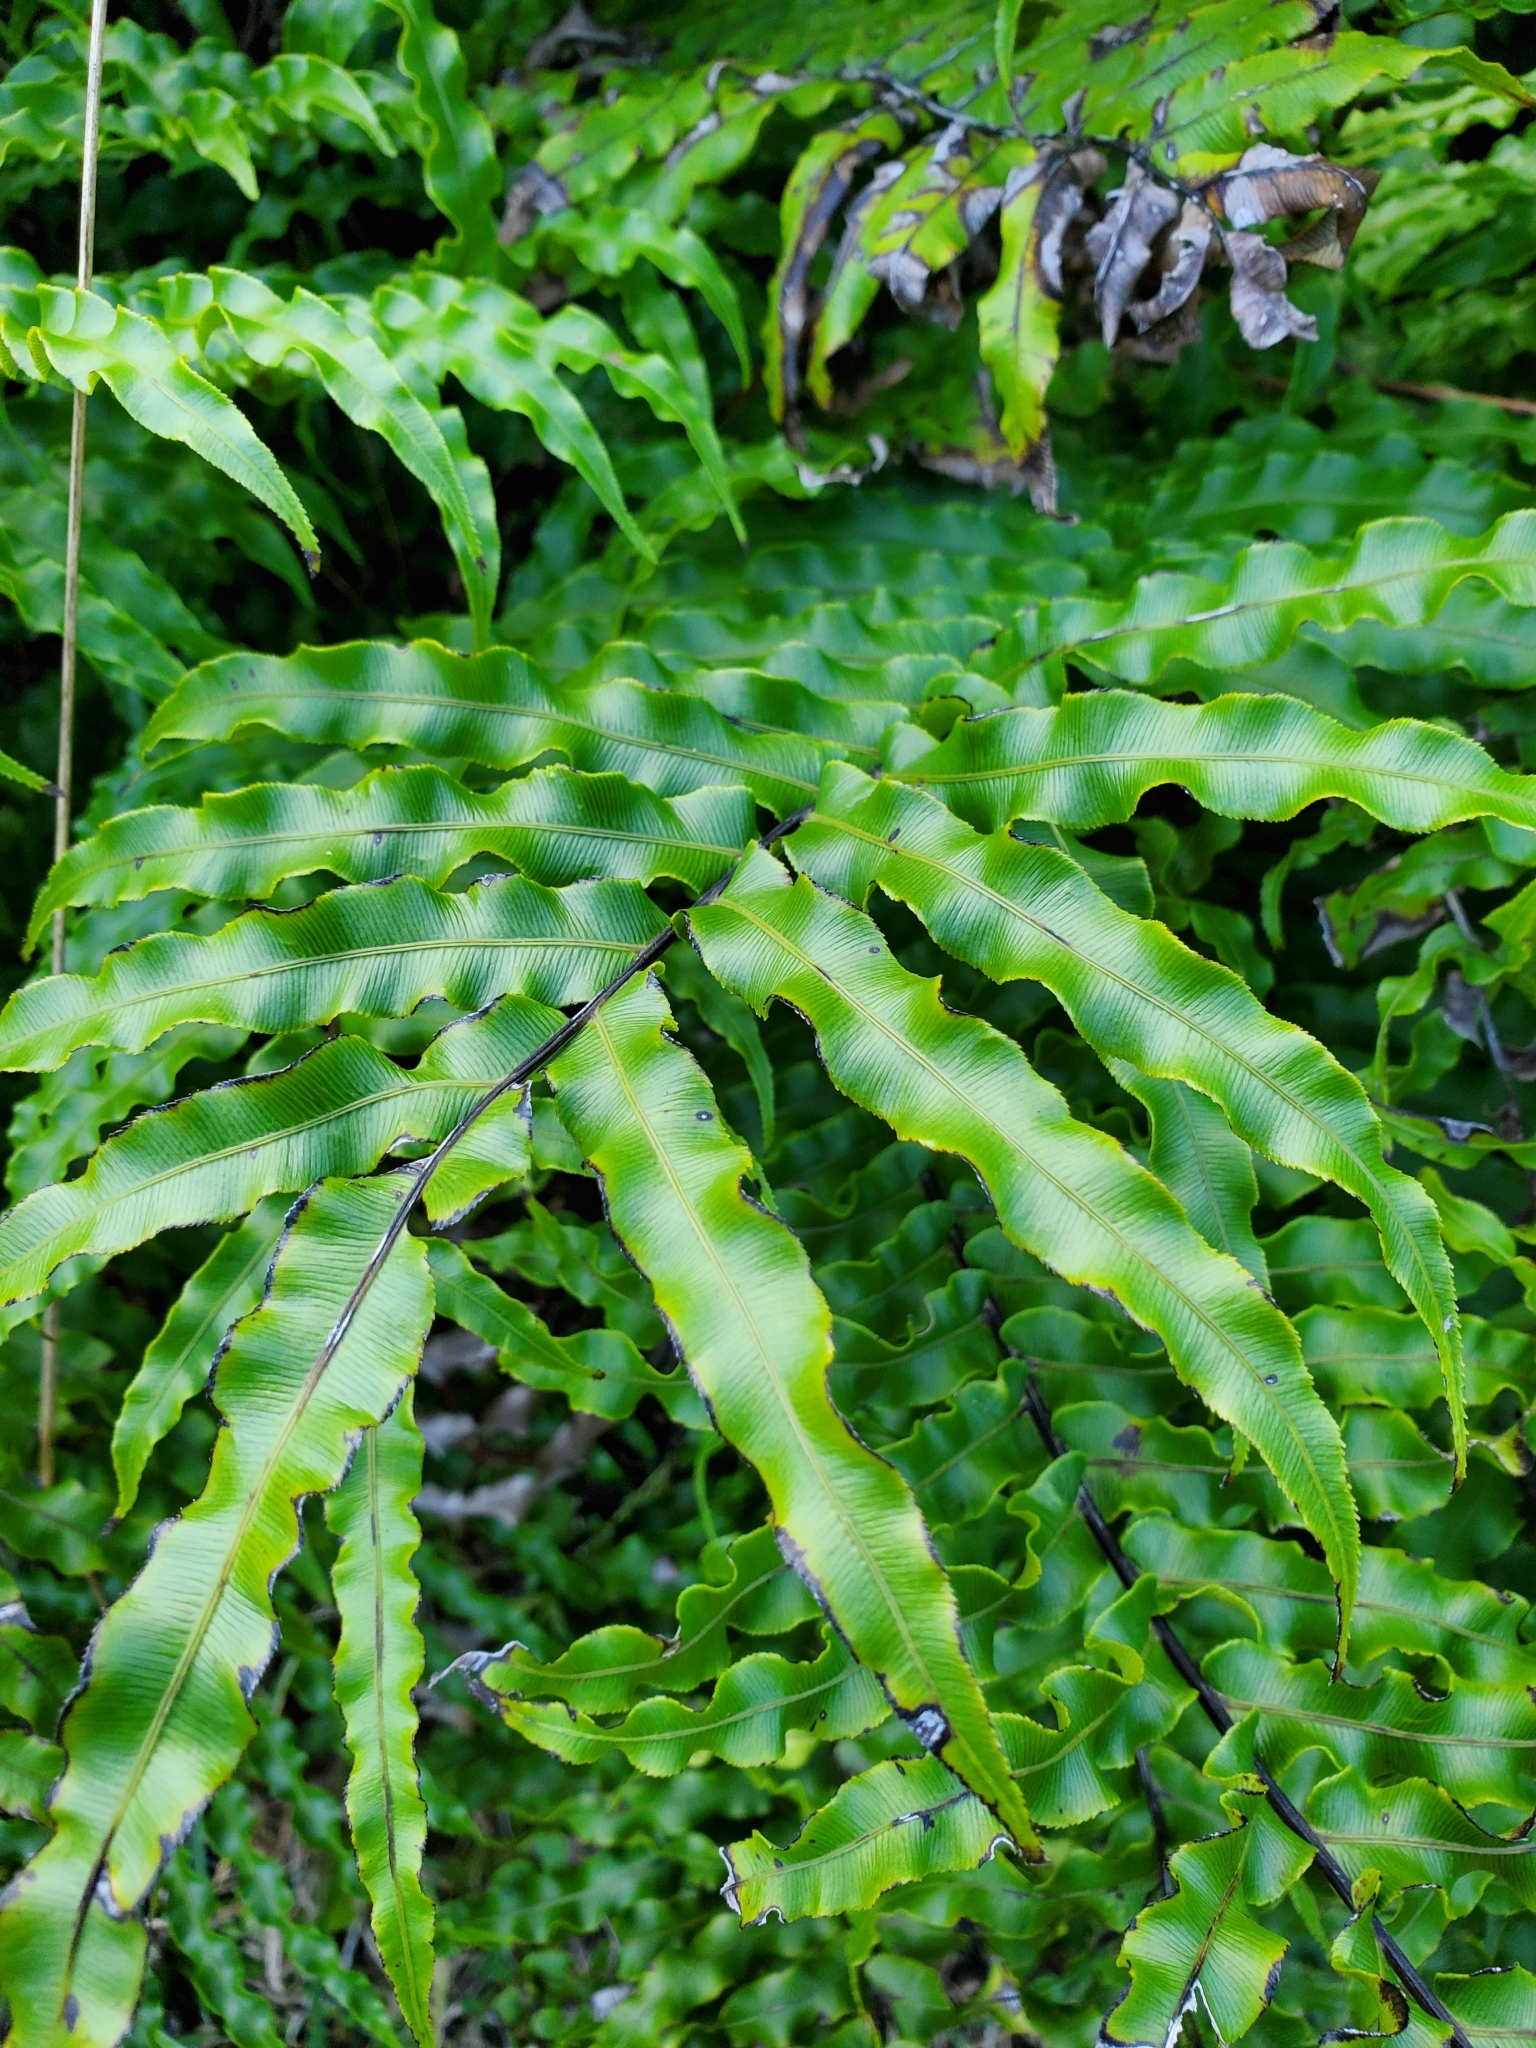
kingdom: Plantae
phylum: Tracheophyta
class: Polypodiopsida
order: Polypodiales
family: Blechnaceae
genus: Parablechnum
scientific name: Parablechnum novae-zelandiae
